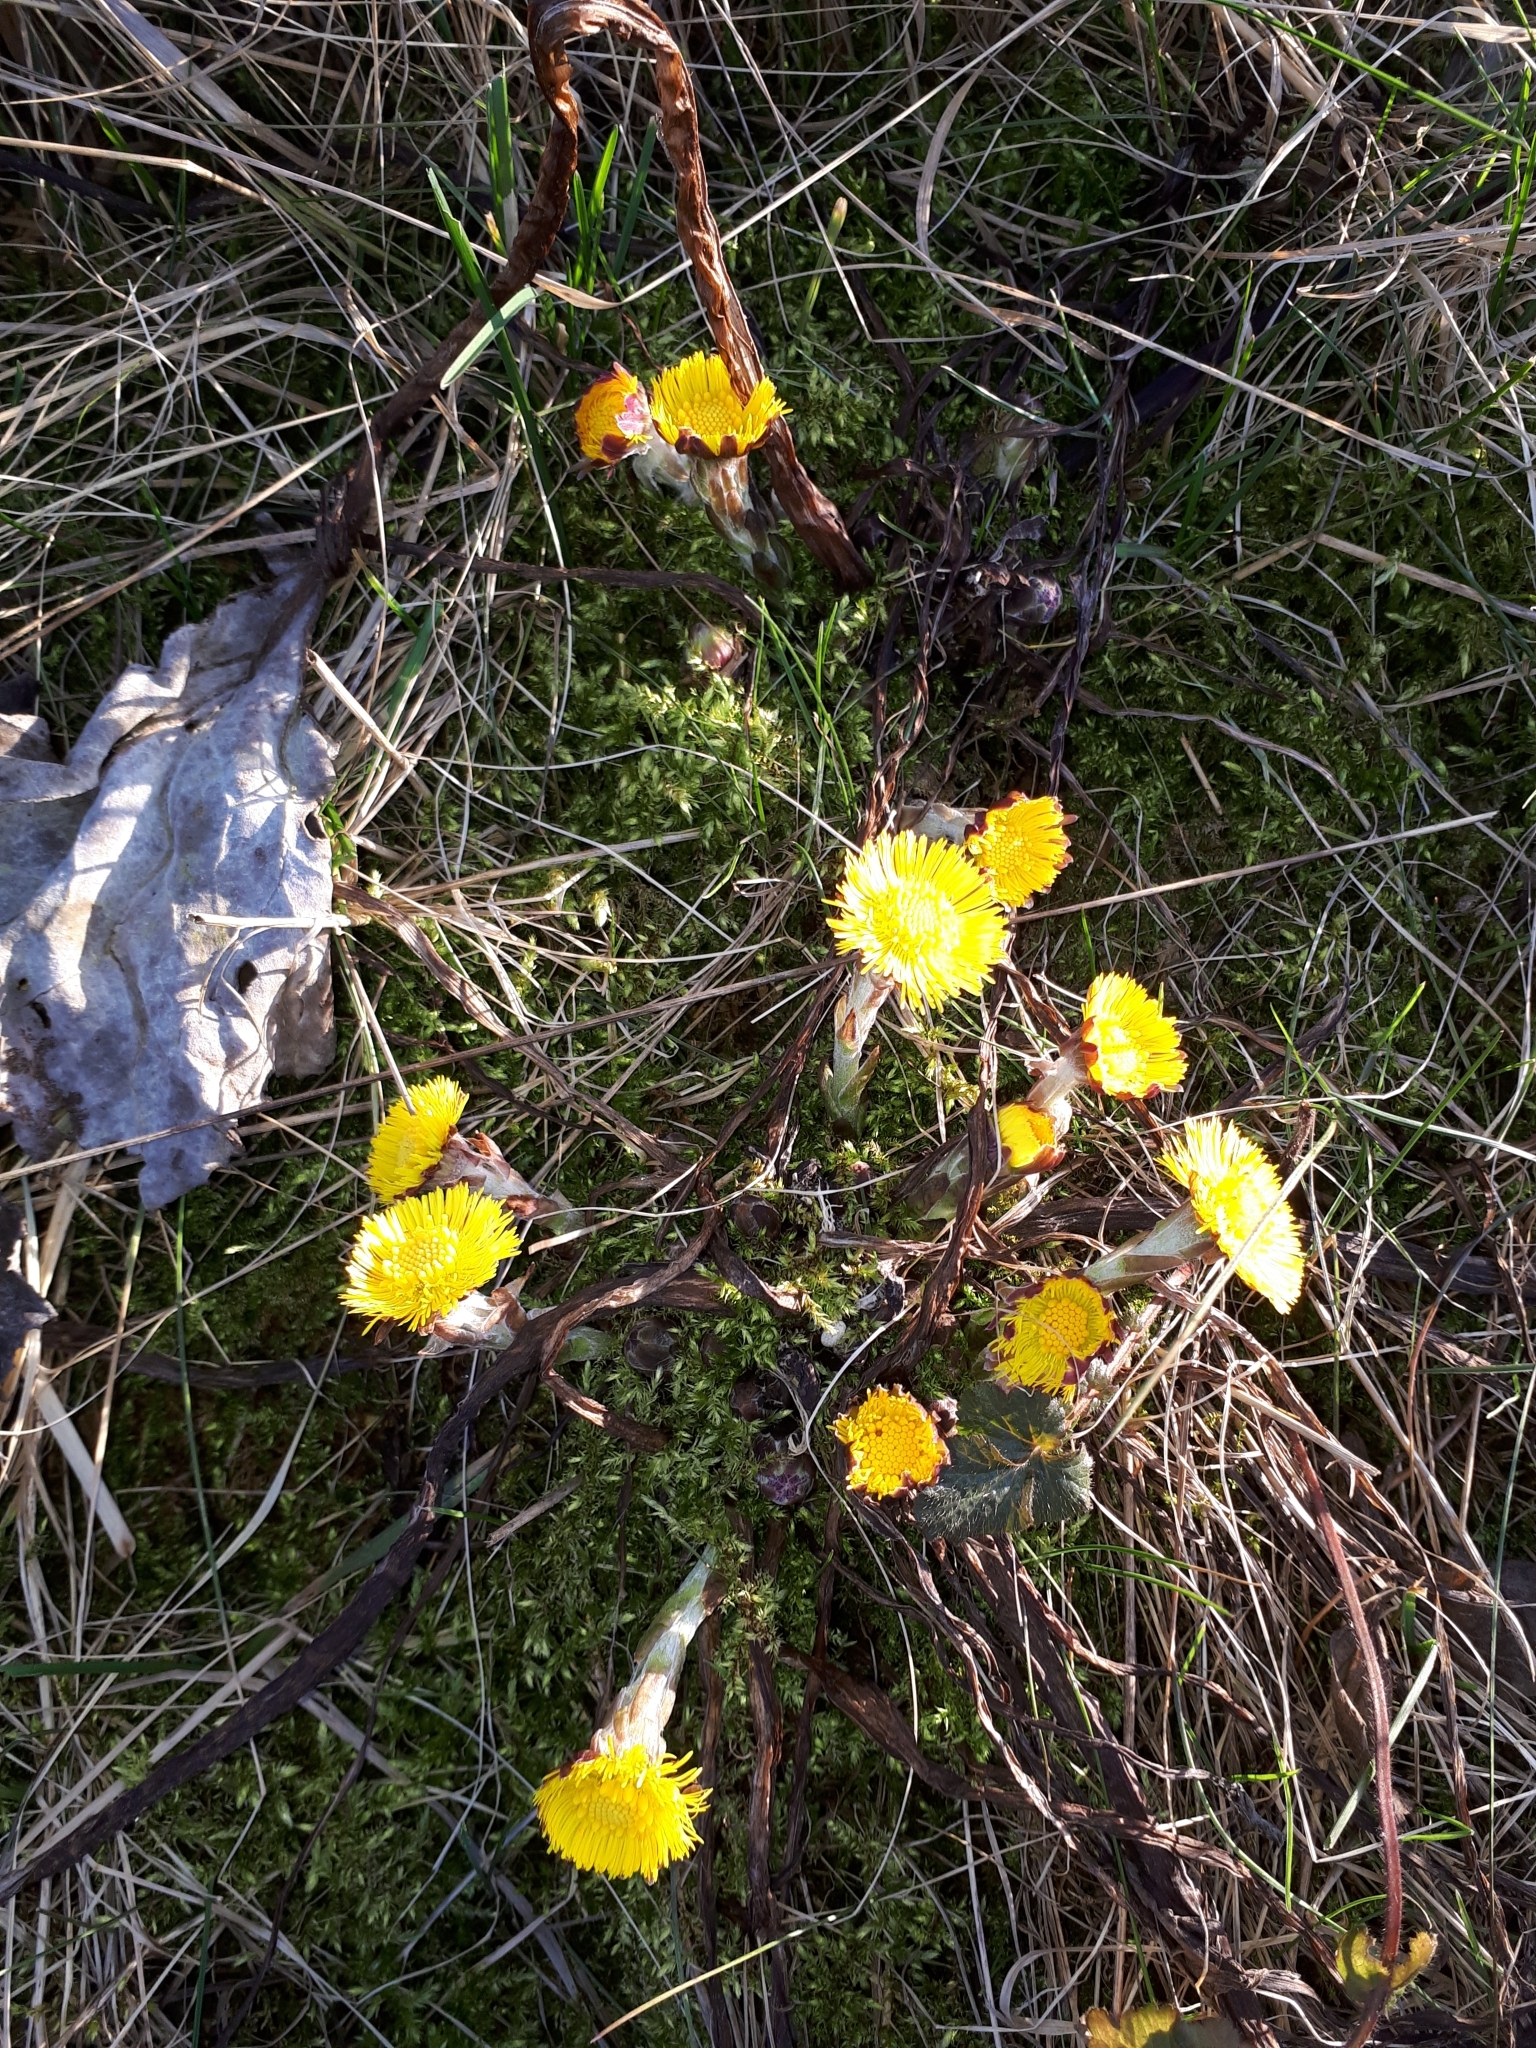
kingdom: Plantae
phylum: Tracheophyta
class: Magnoliopsida
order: Asterales
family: Asteraceae
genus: Tussilago
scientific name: Tussilago farfara
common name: Coltsfoot
